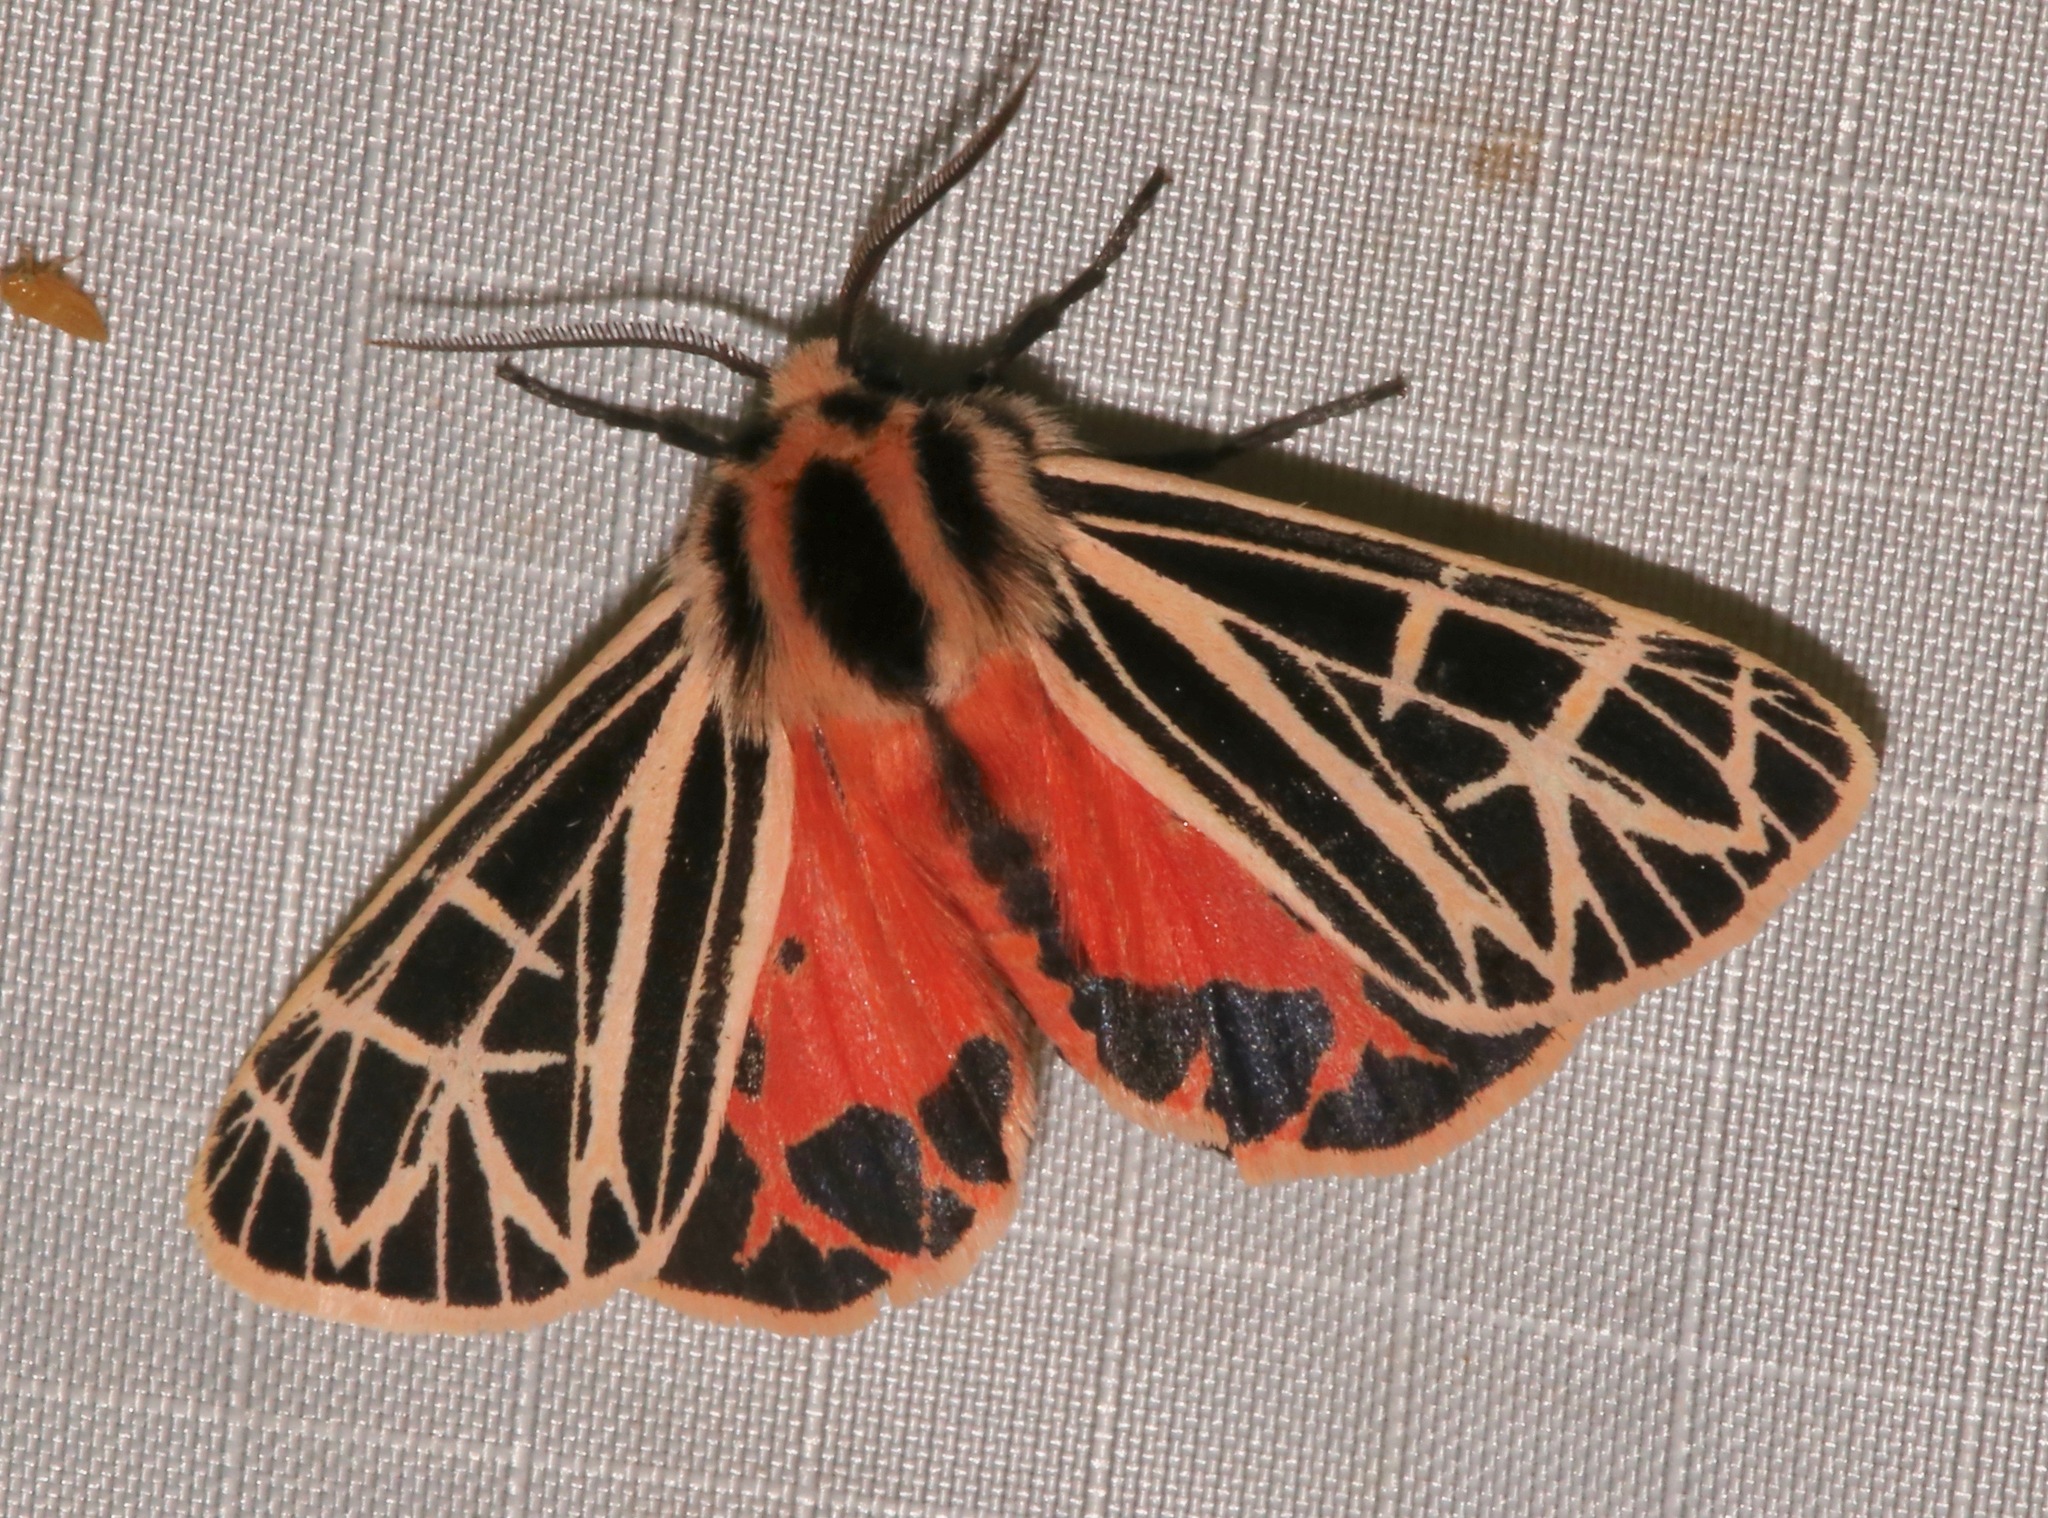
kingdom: Animalia
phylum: Arthropoda
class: Insecta
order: Lepidoptera
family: Erebidae
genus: Grammia
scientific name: Grammia parthenice
